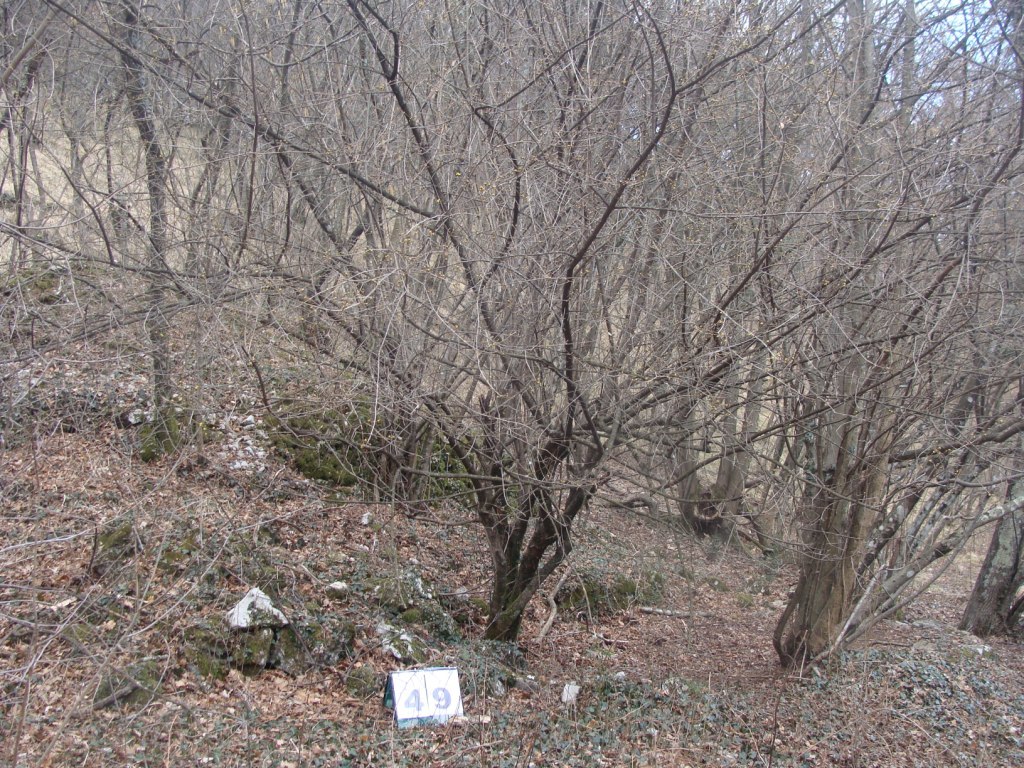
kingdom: Plantae
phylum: Tracheophyta
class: Magnoliopsida
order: Cornales
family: Cornaceae
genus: Cornus
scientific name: Cornus mas
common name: Cornelian-cherry
